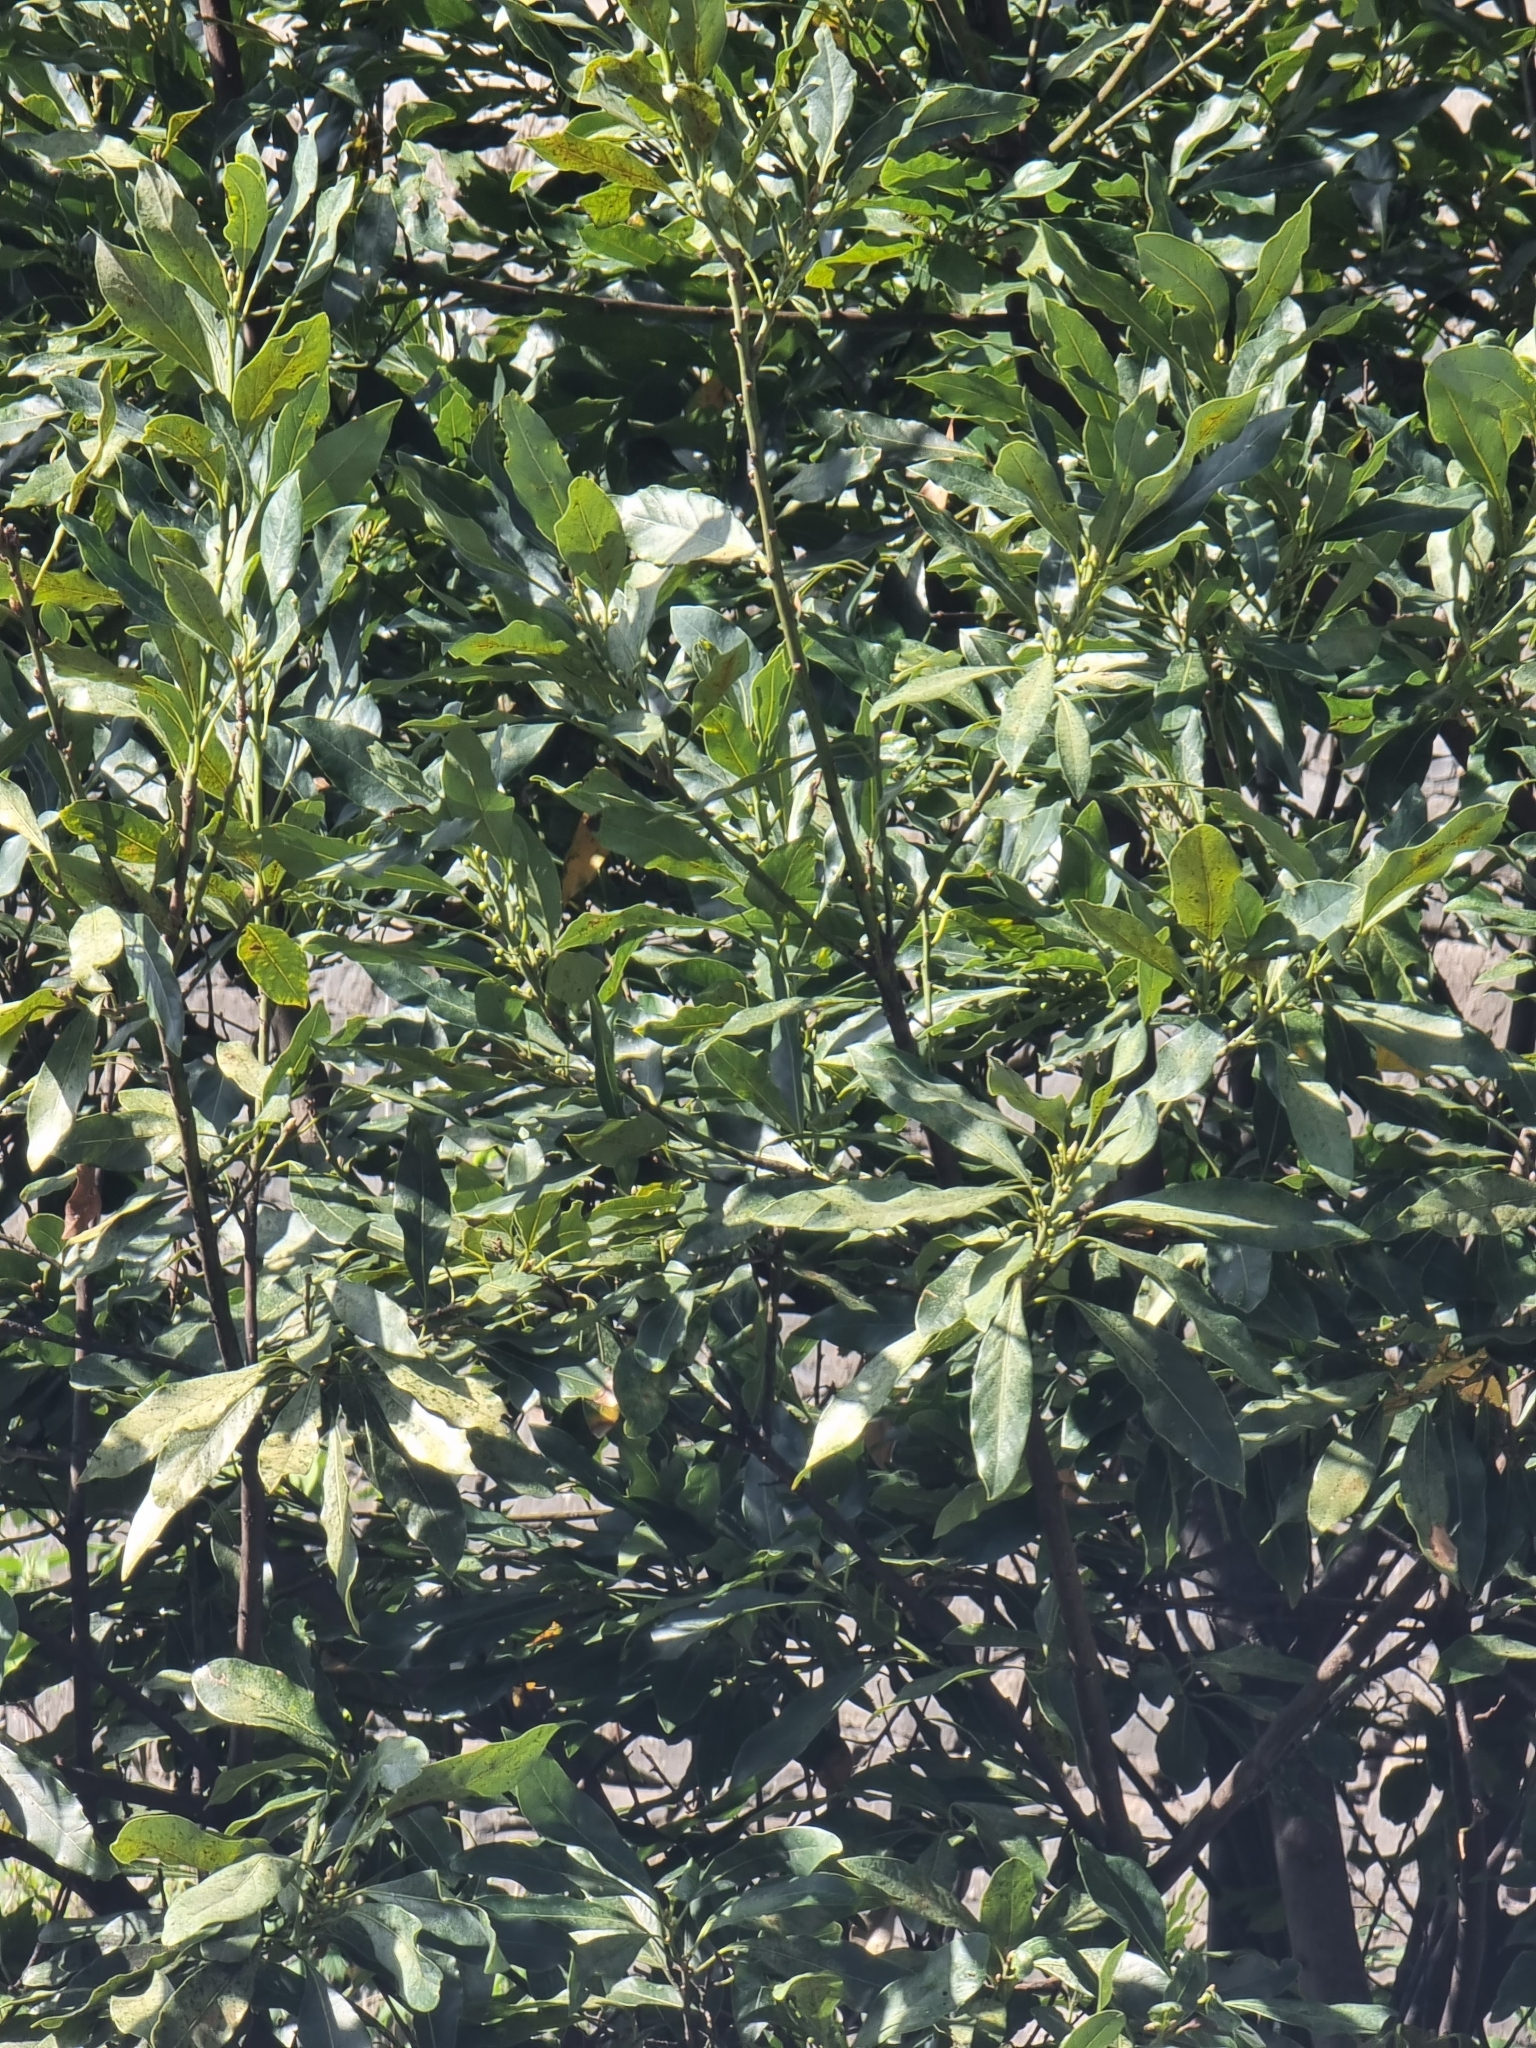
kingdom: Plantae
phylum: Tracheophyta
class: Magnoliopsida
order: Laurales
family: Lauraceae
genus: Laurus
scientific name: Laurus novocanariensis
